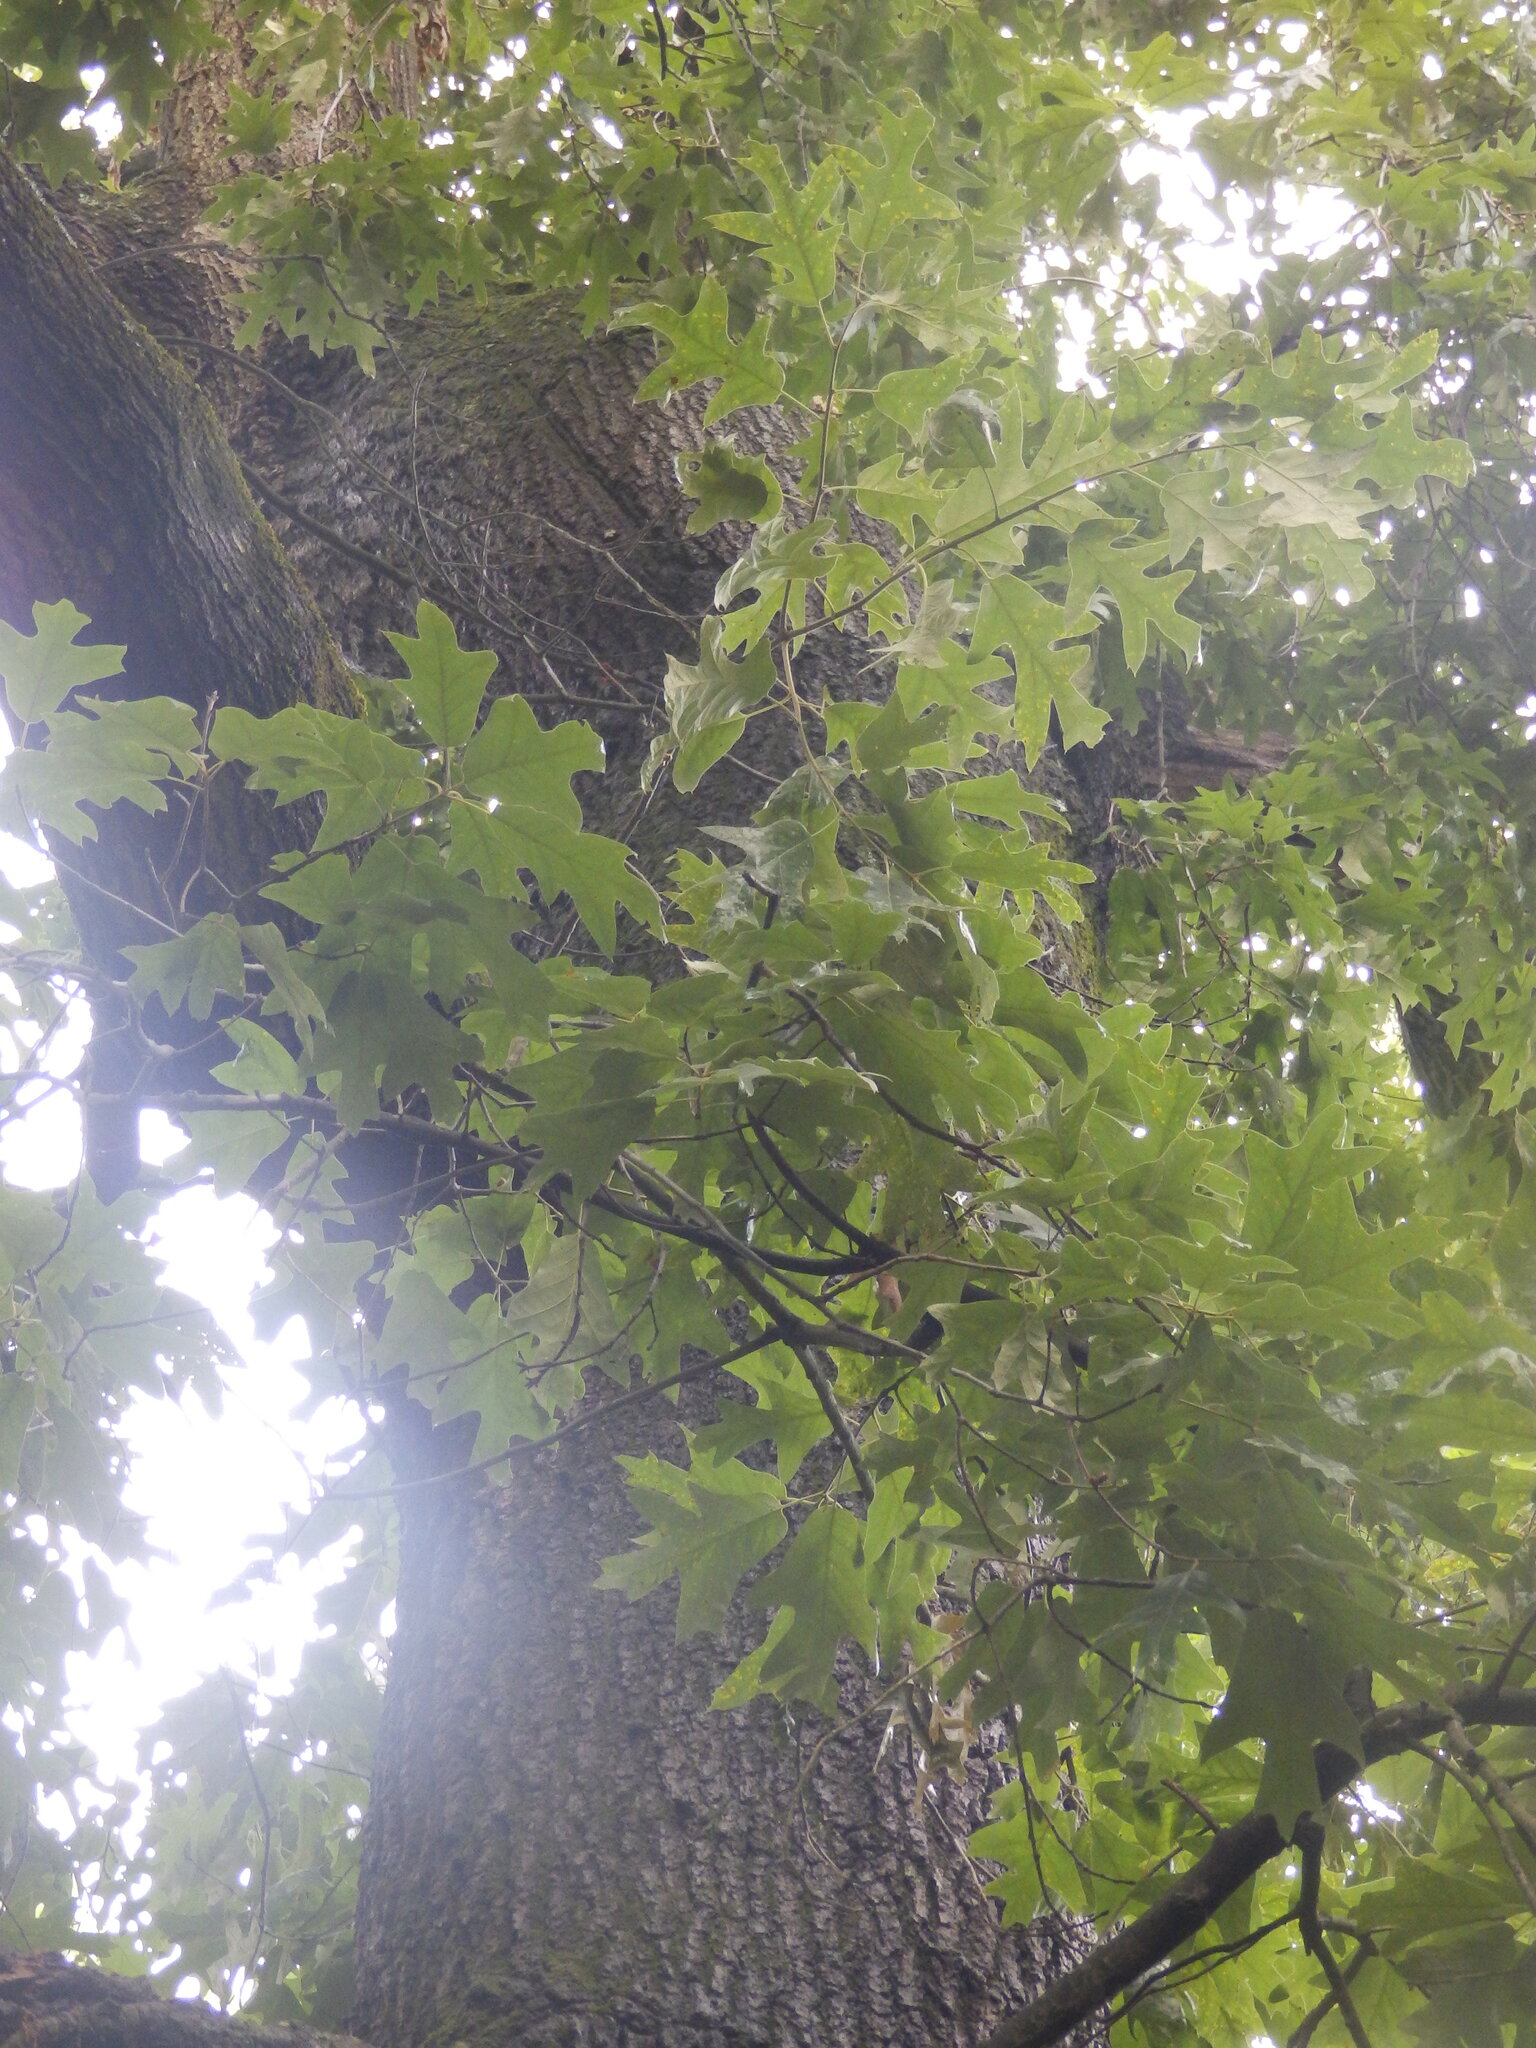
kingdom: Plantae
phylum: Tracheophyta
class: Magnoliopsida
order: Fagales
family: Fagaceae
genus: Quercus
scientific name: Quercus falcata
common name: Southern red oak
